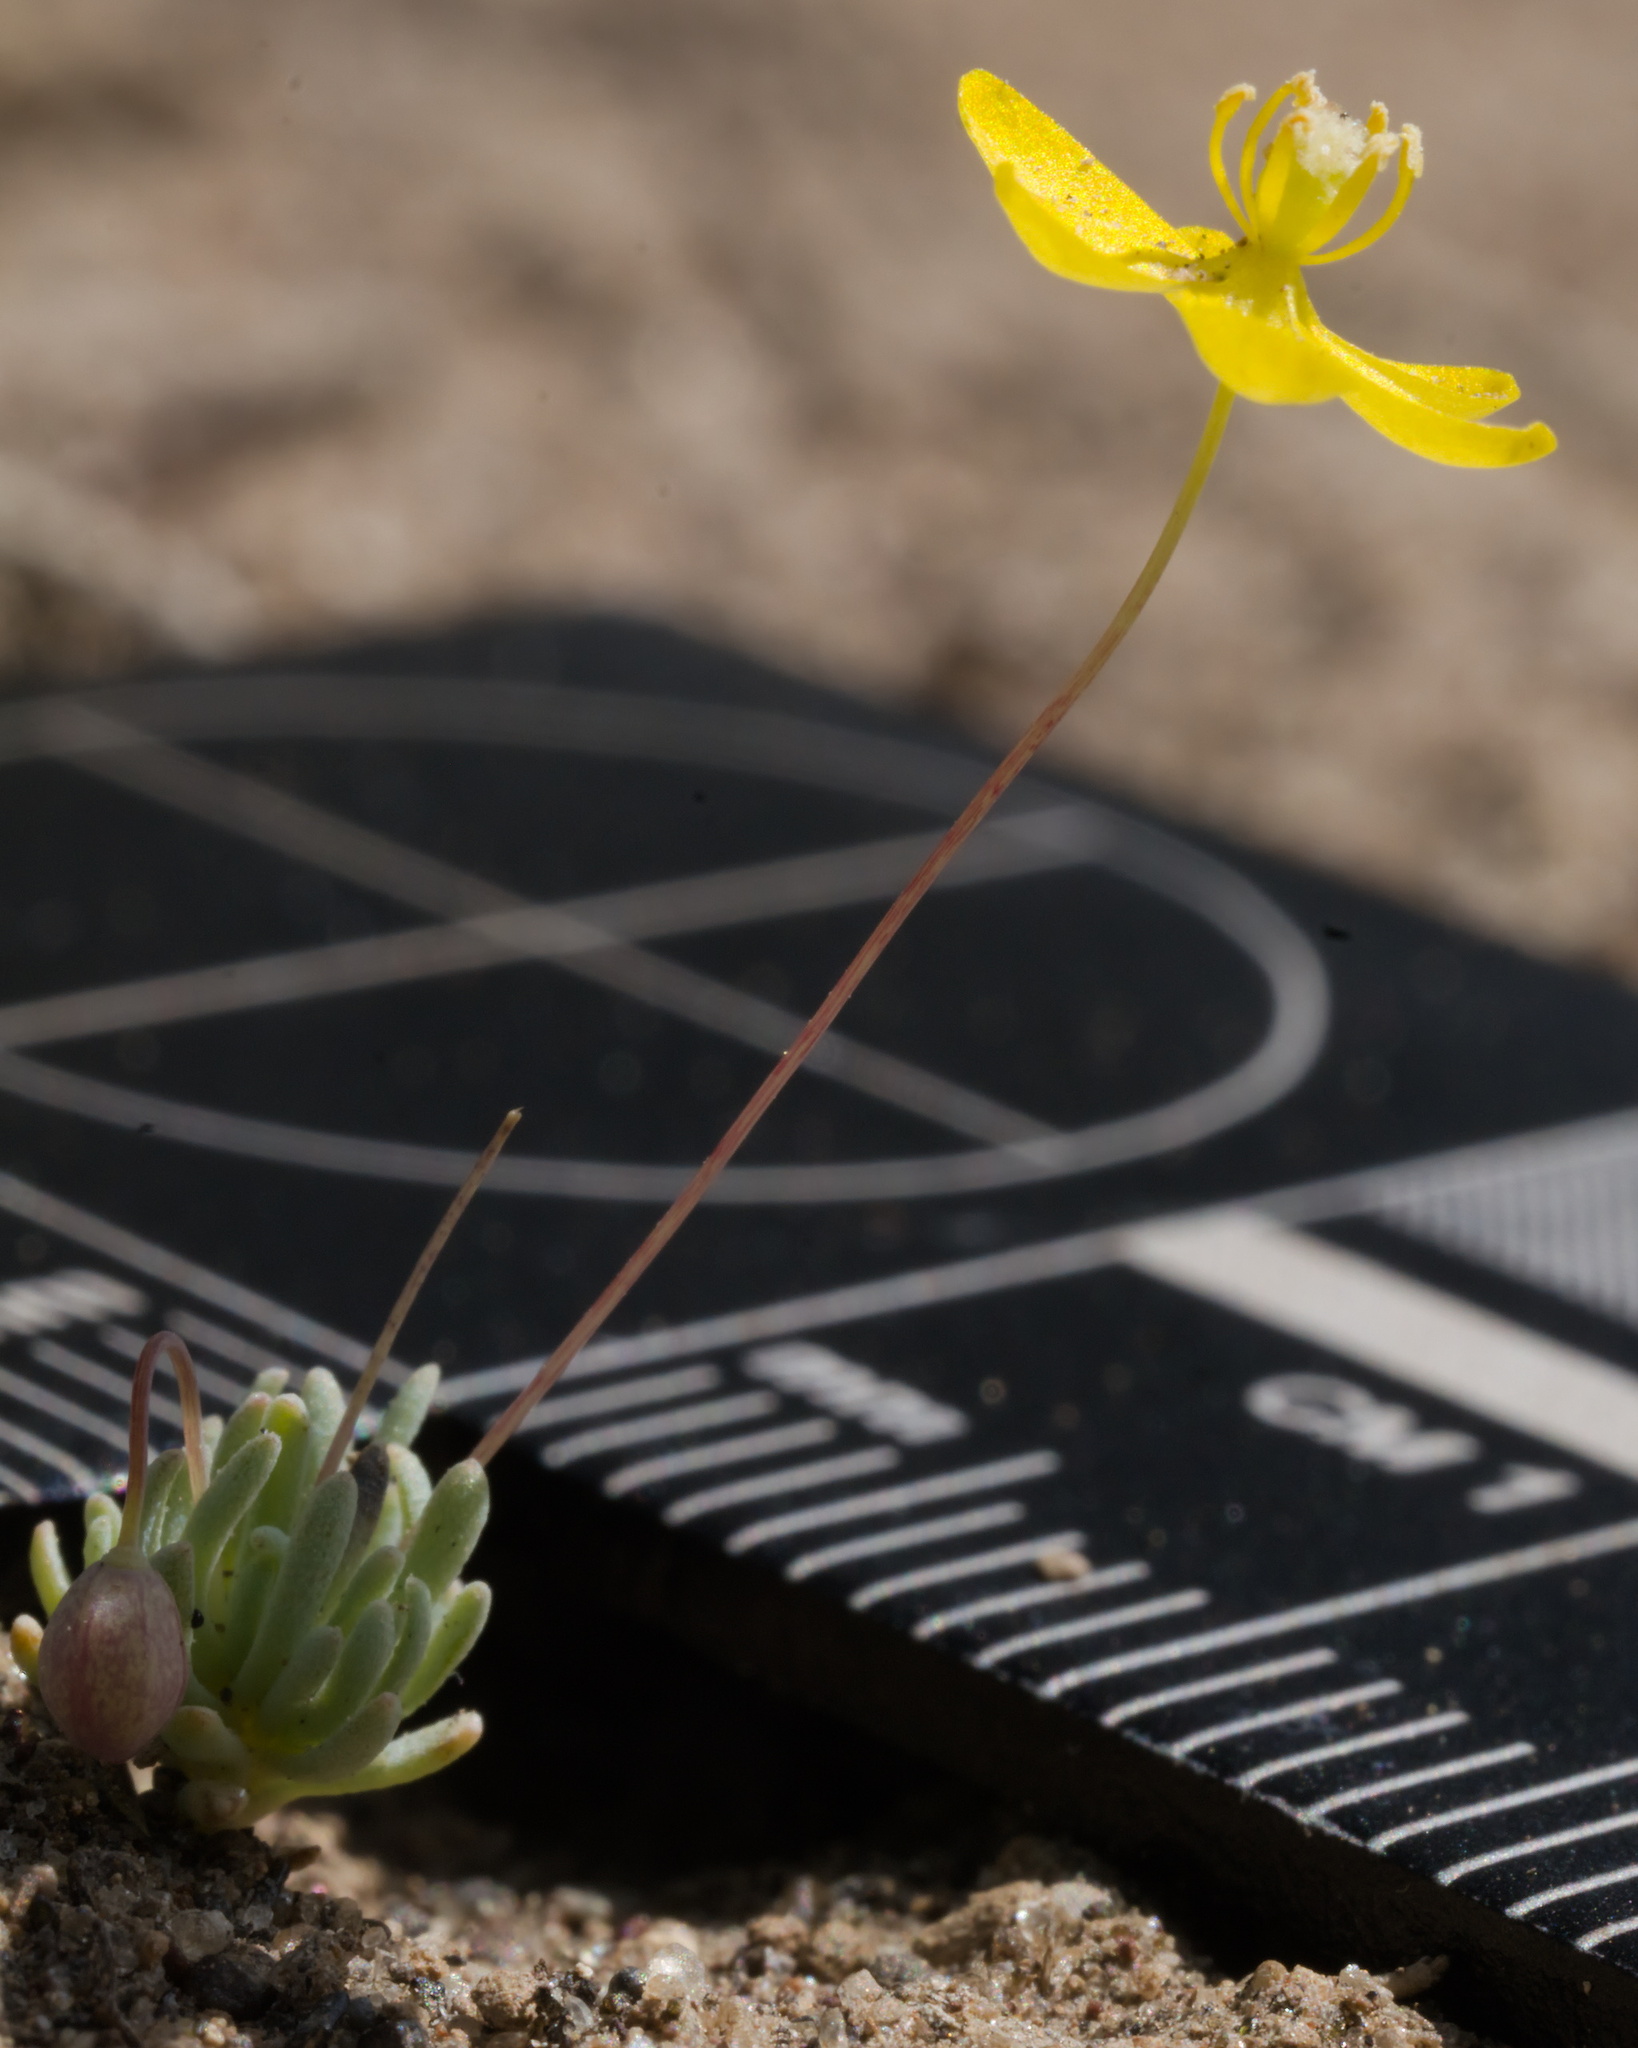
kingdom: Plantae
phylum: Tracheophyta
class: Magnoliopsida
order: Ranunculales
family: Papaveraceae
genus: Canbya
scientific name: Canbya aurea
